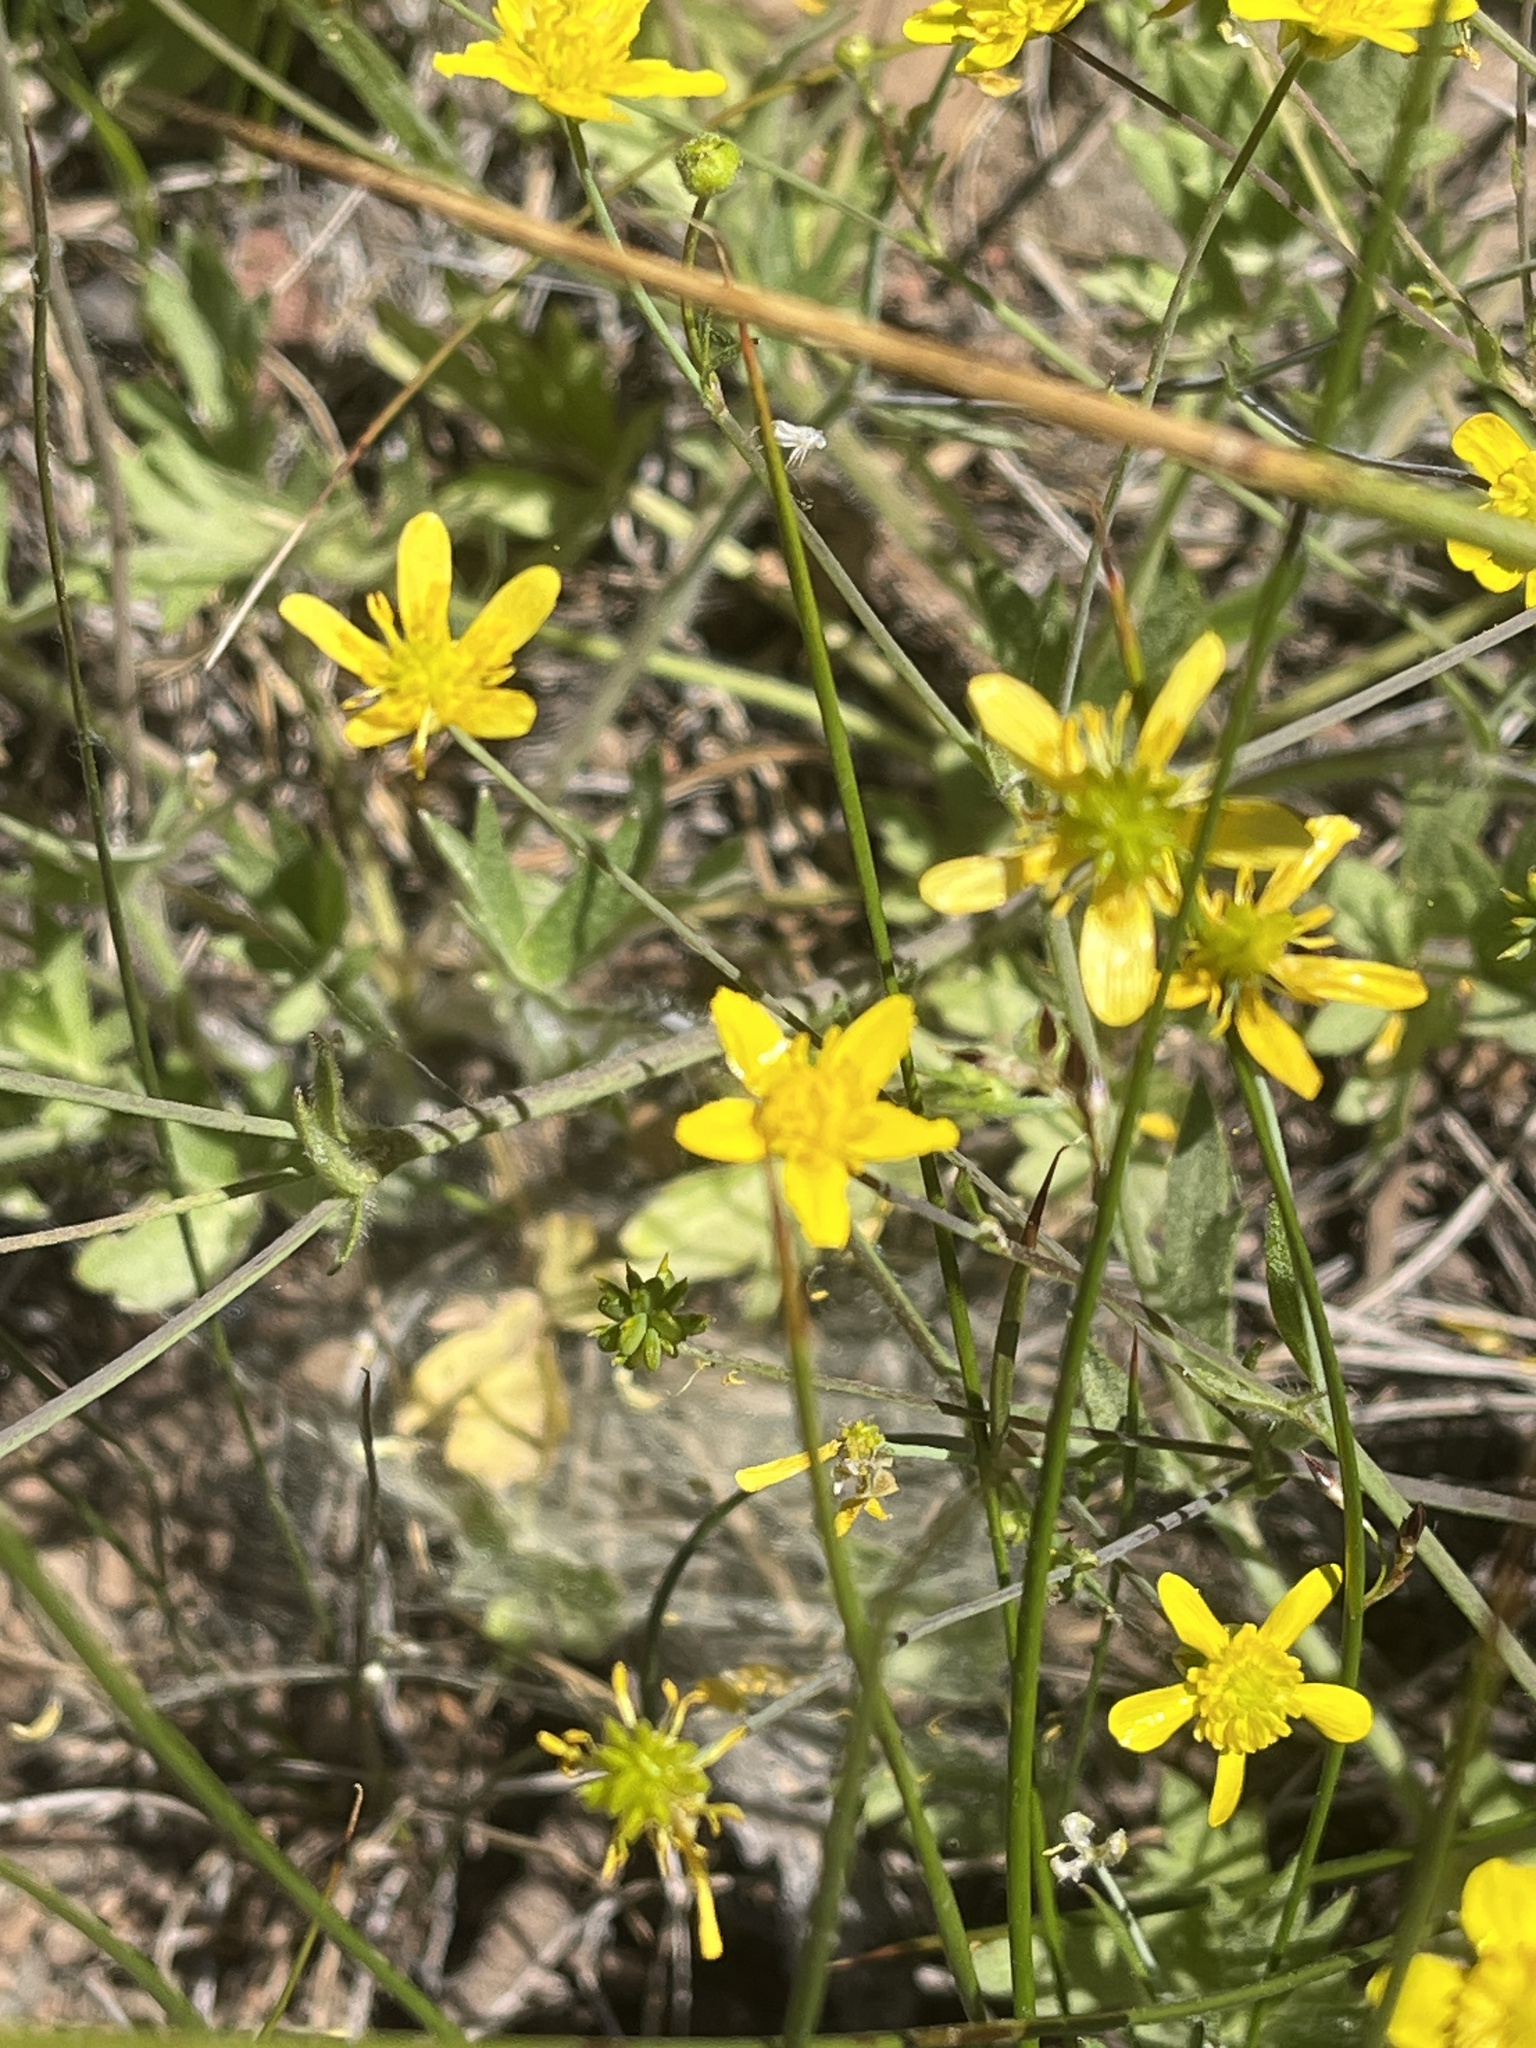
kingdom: Plantae
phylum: Tracheophyta
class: Magnoliopsida
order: Ranunculales
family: Ranunculaceae
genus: Ranunculus
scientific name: Ranunculus occidentalis
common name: Western buttercup
